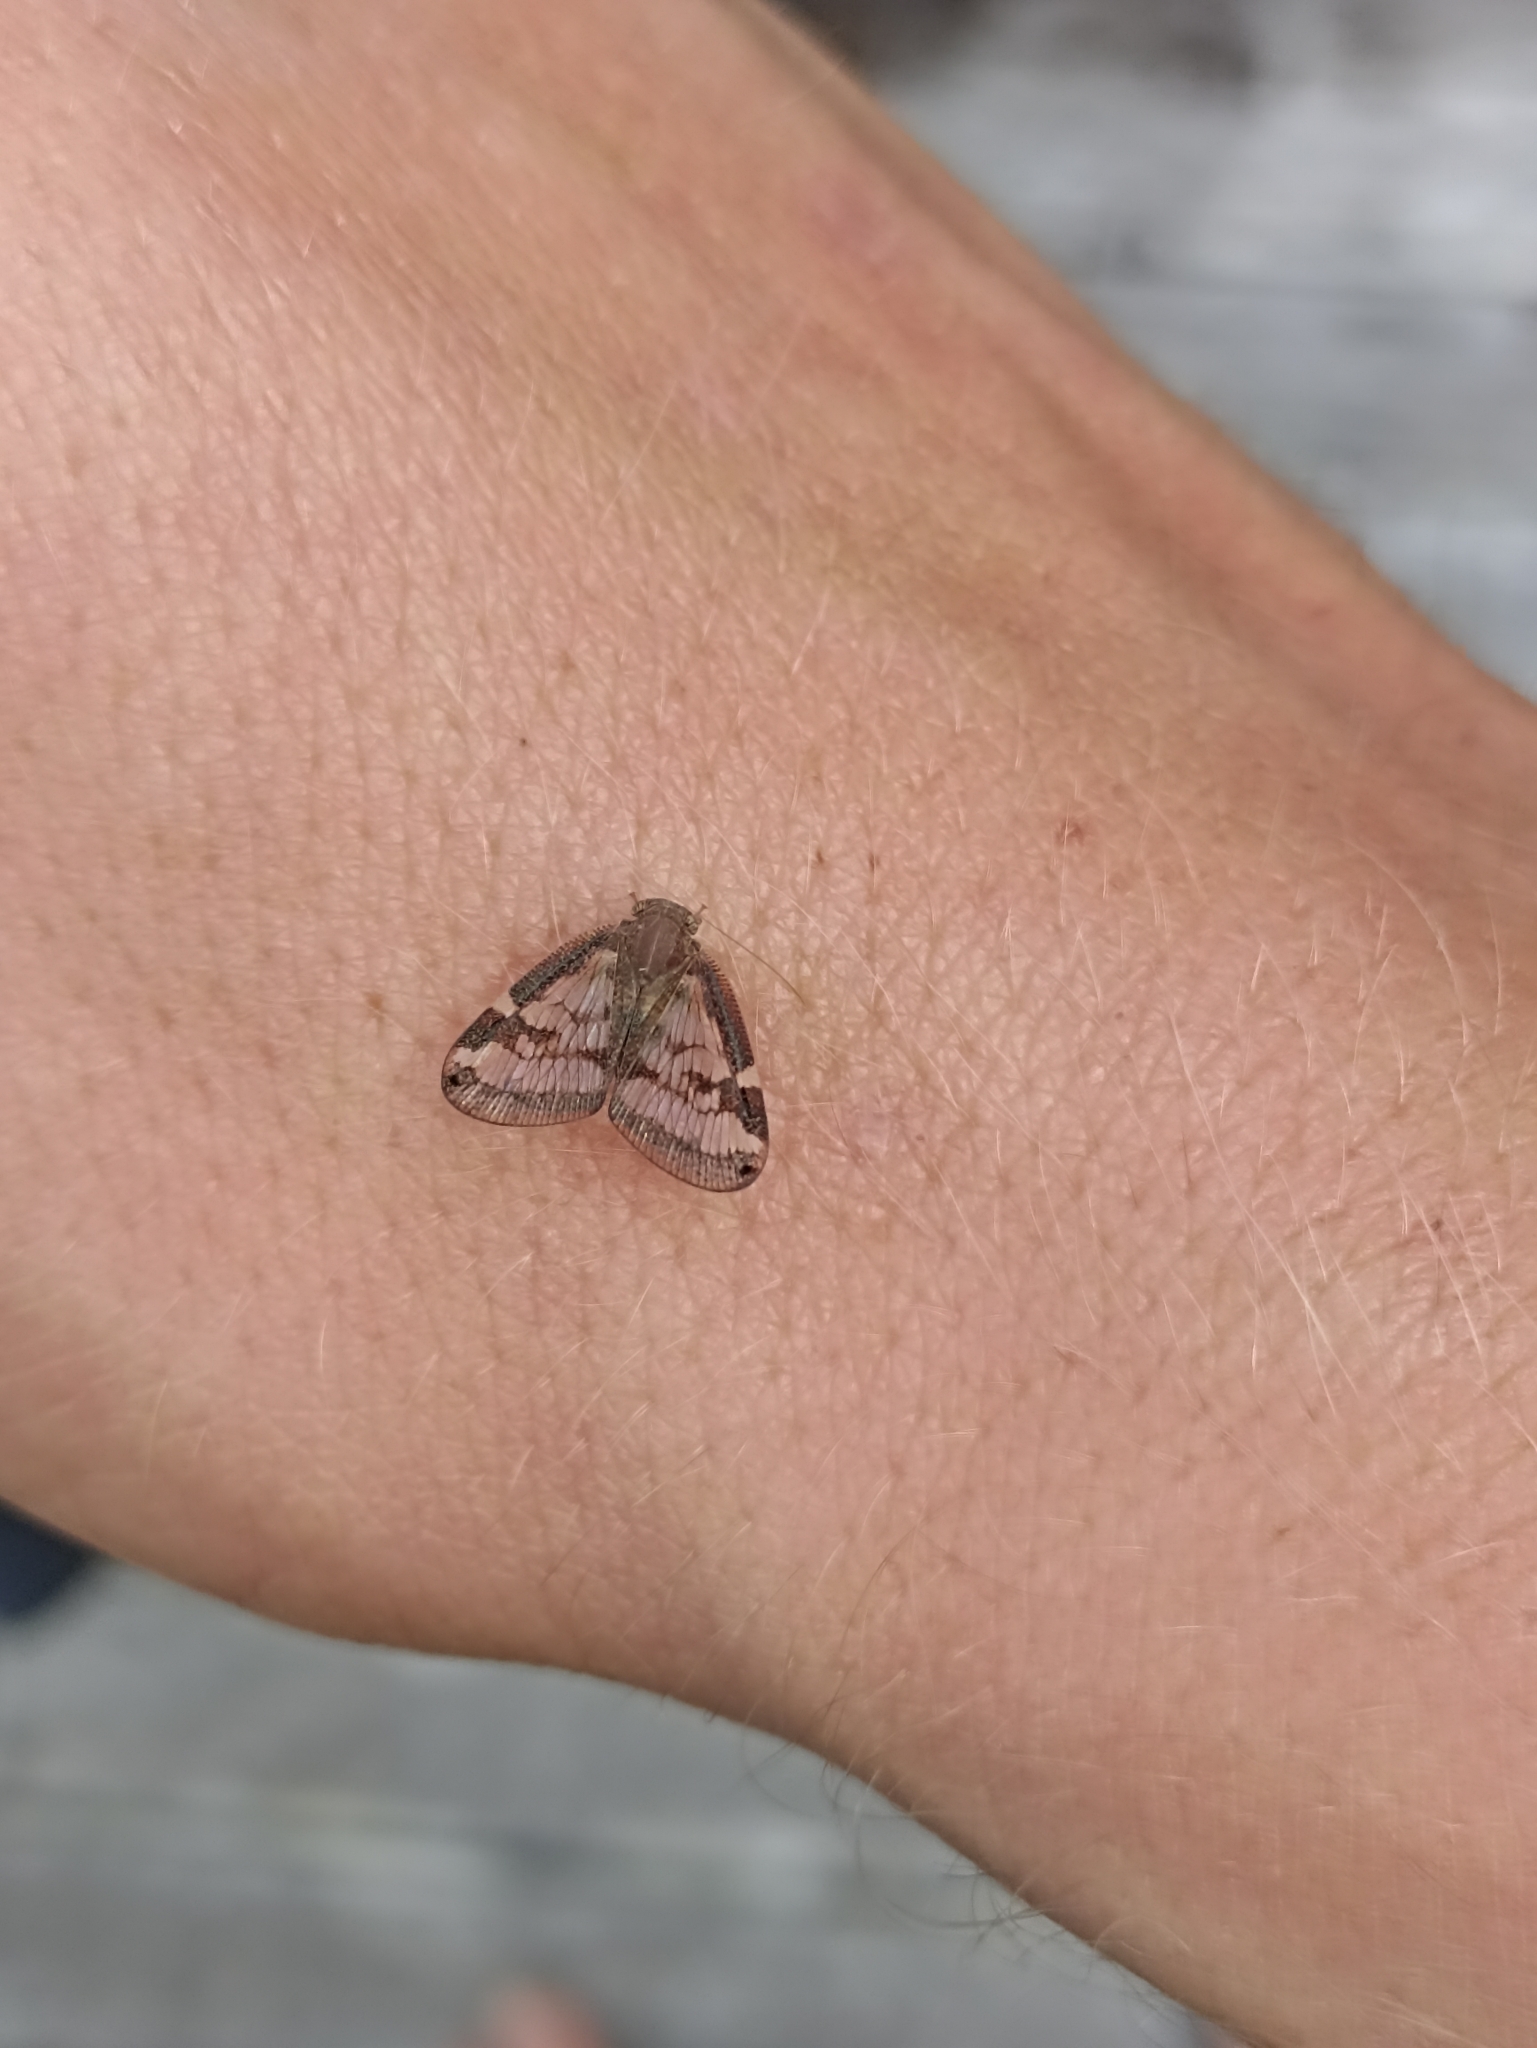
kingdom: Animalia
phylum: Arthropoda
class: Insecta
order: Hemiptera
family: Ricaniidae
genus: Scolypopa
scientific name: Scolypopa australis
